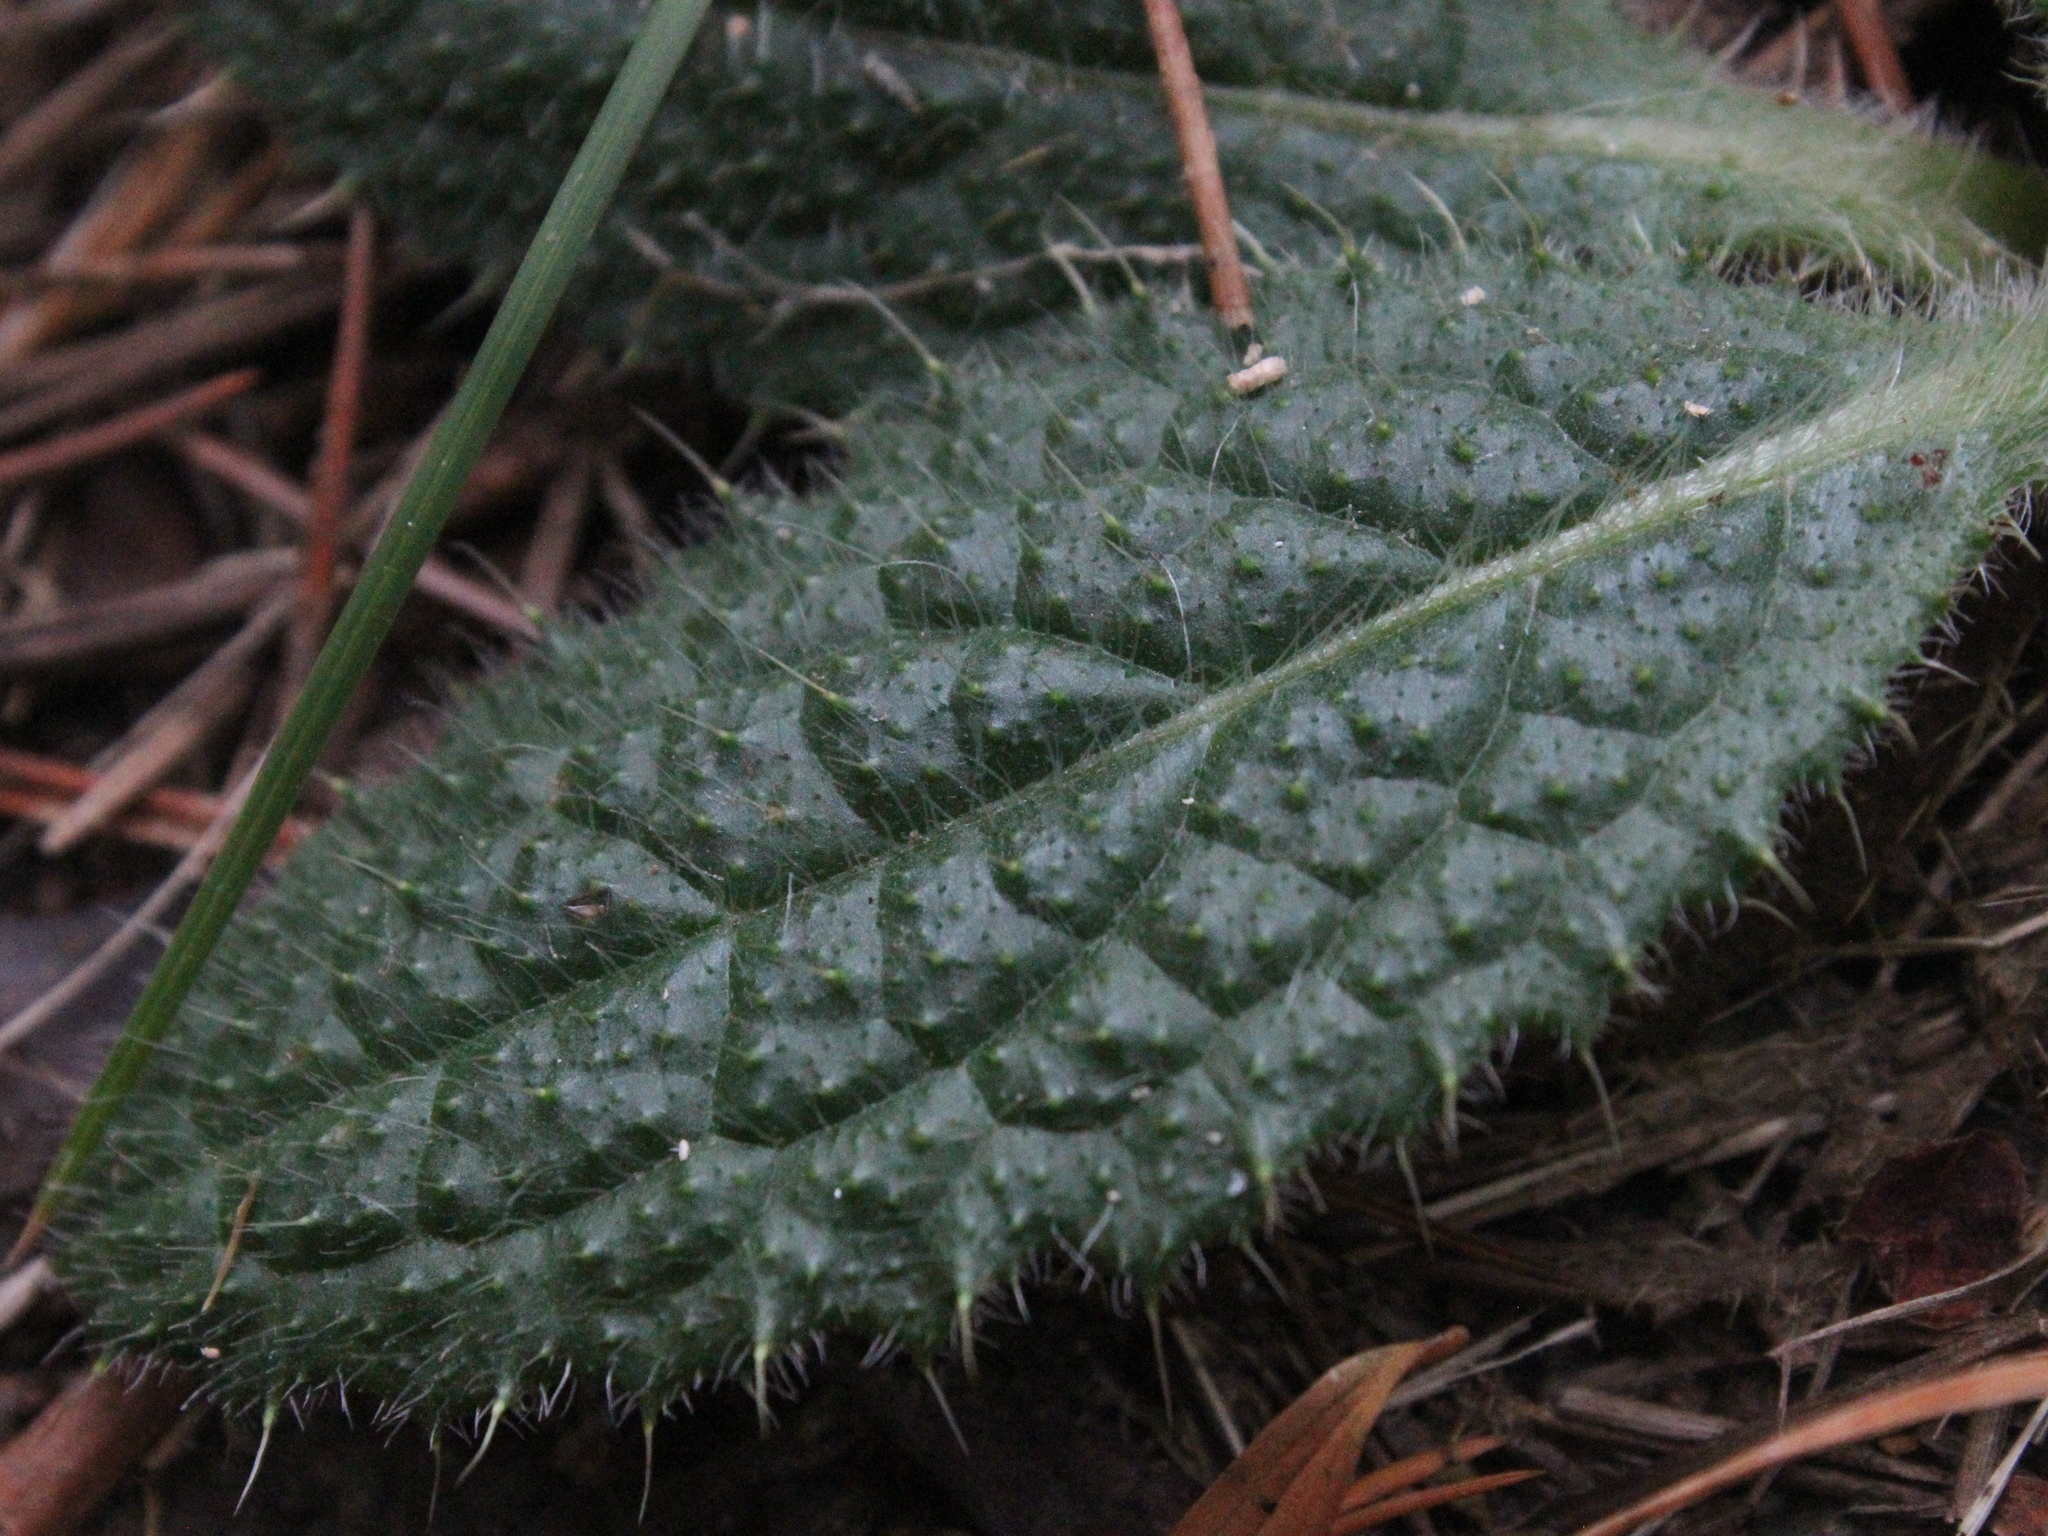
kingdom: Plantae
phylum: Tracheophyta
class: Magnoliopsida
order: Asterales
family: Asteraceae
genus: Cirsium
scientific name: Cirsium vulgare
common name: Bull thistle
